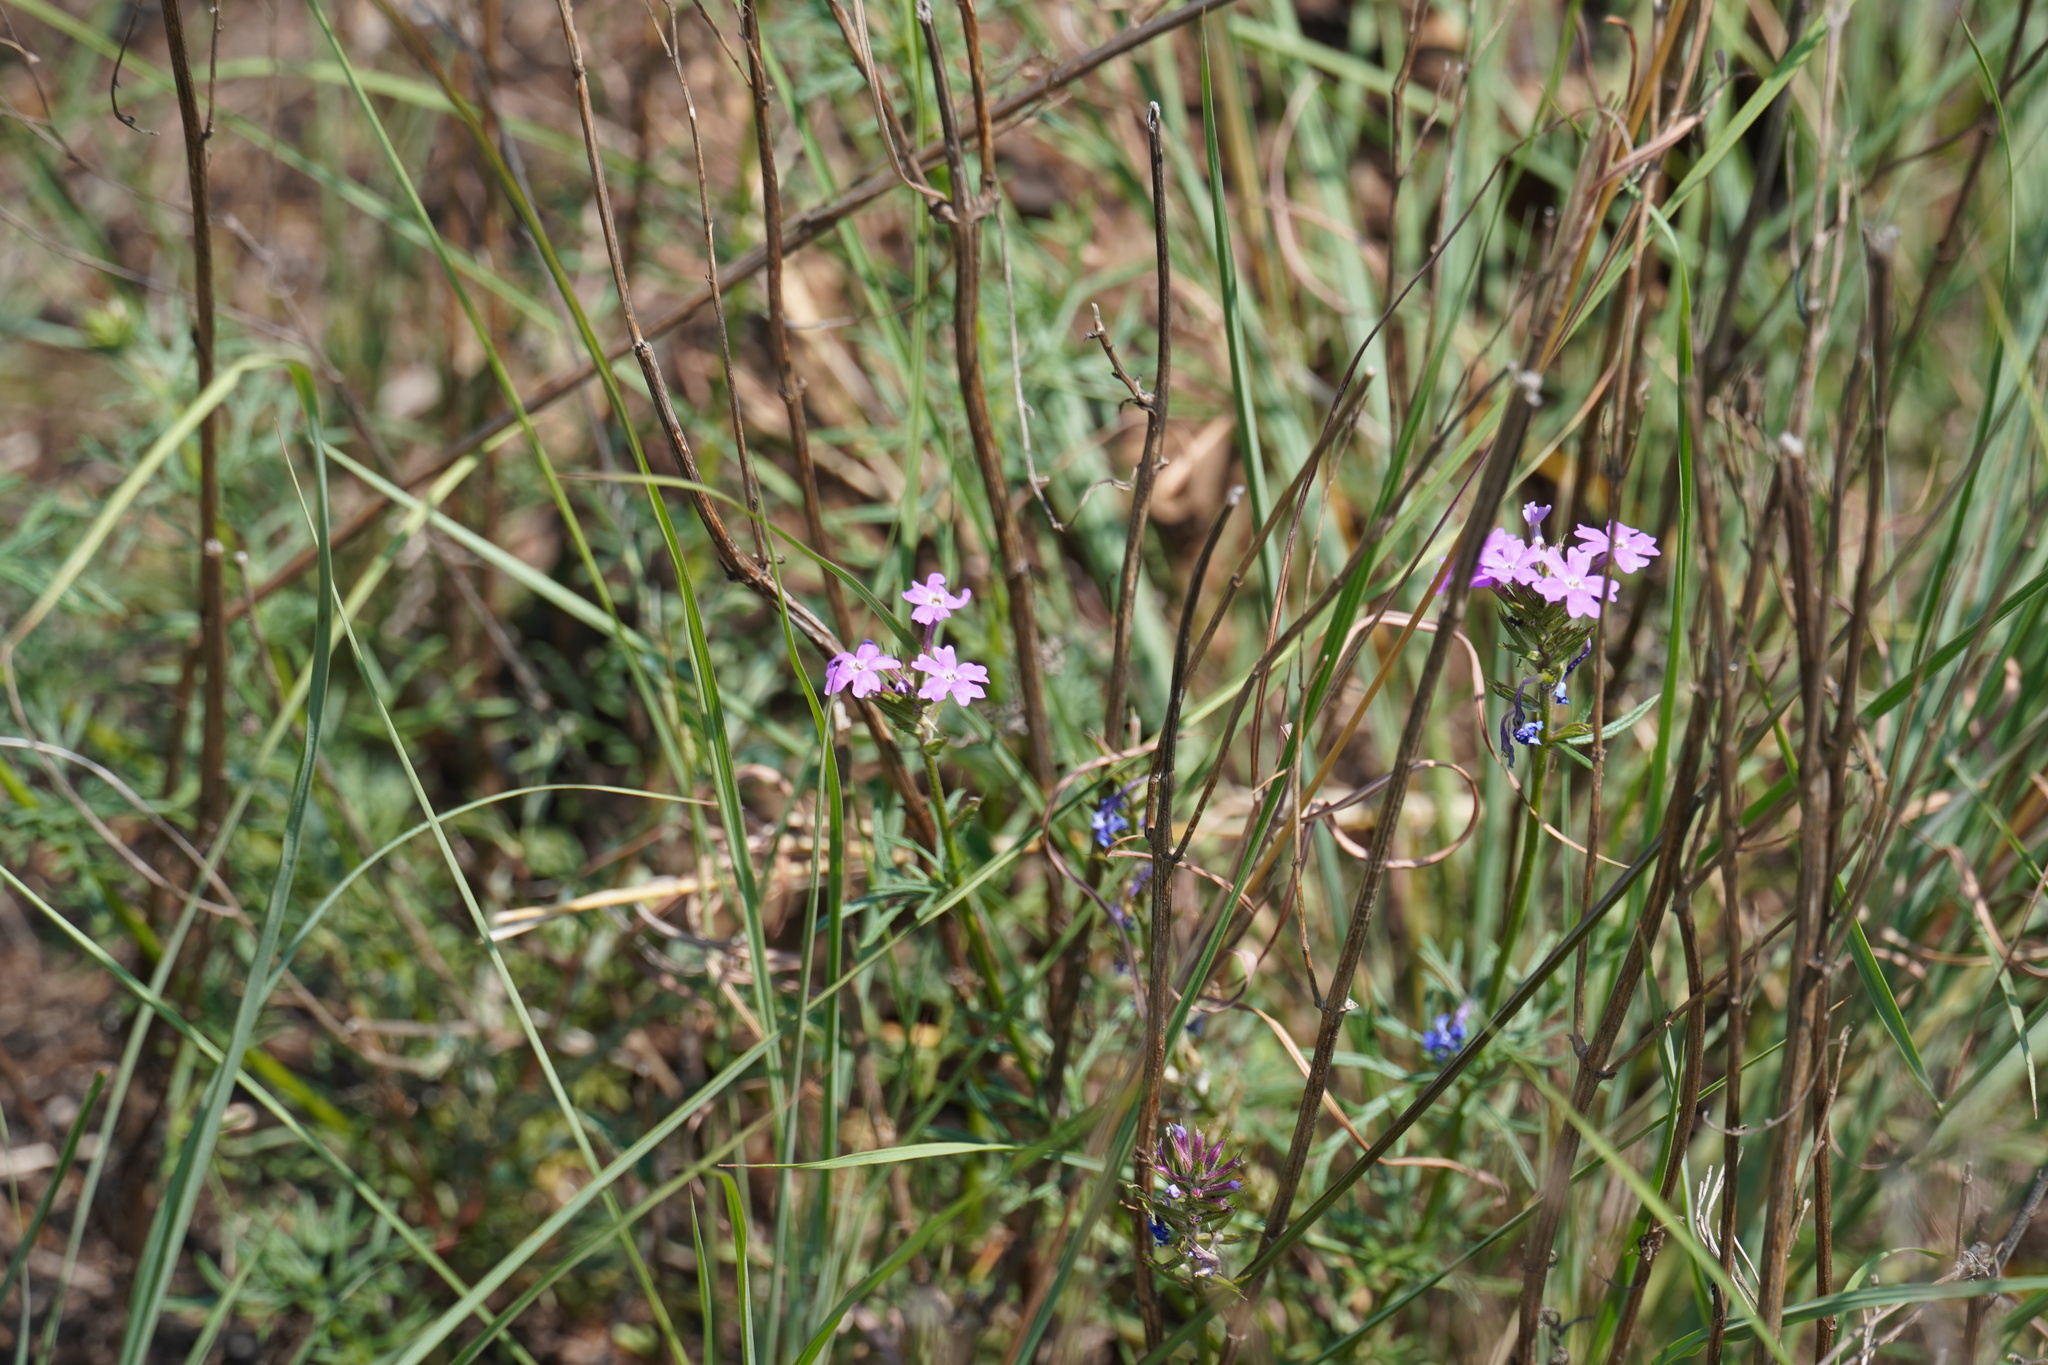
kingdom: Plantae
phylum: Tracheophyta
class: Magnoliopsida
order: Lamiales
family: Verbenaceae
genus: Verbena
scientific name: Verbena aristigera
